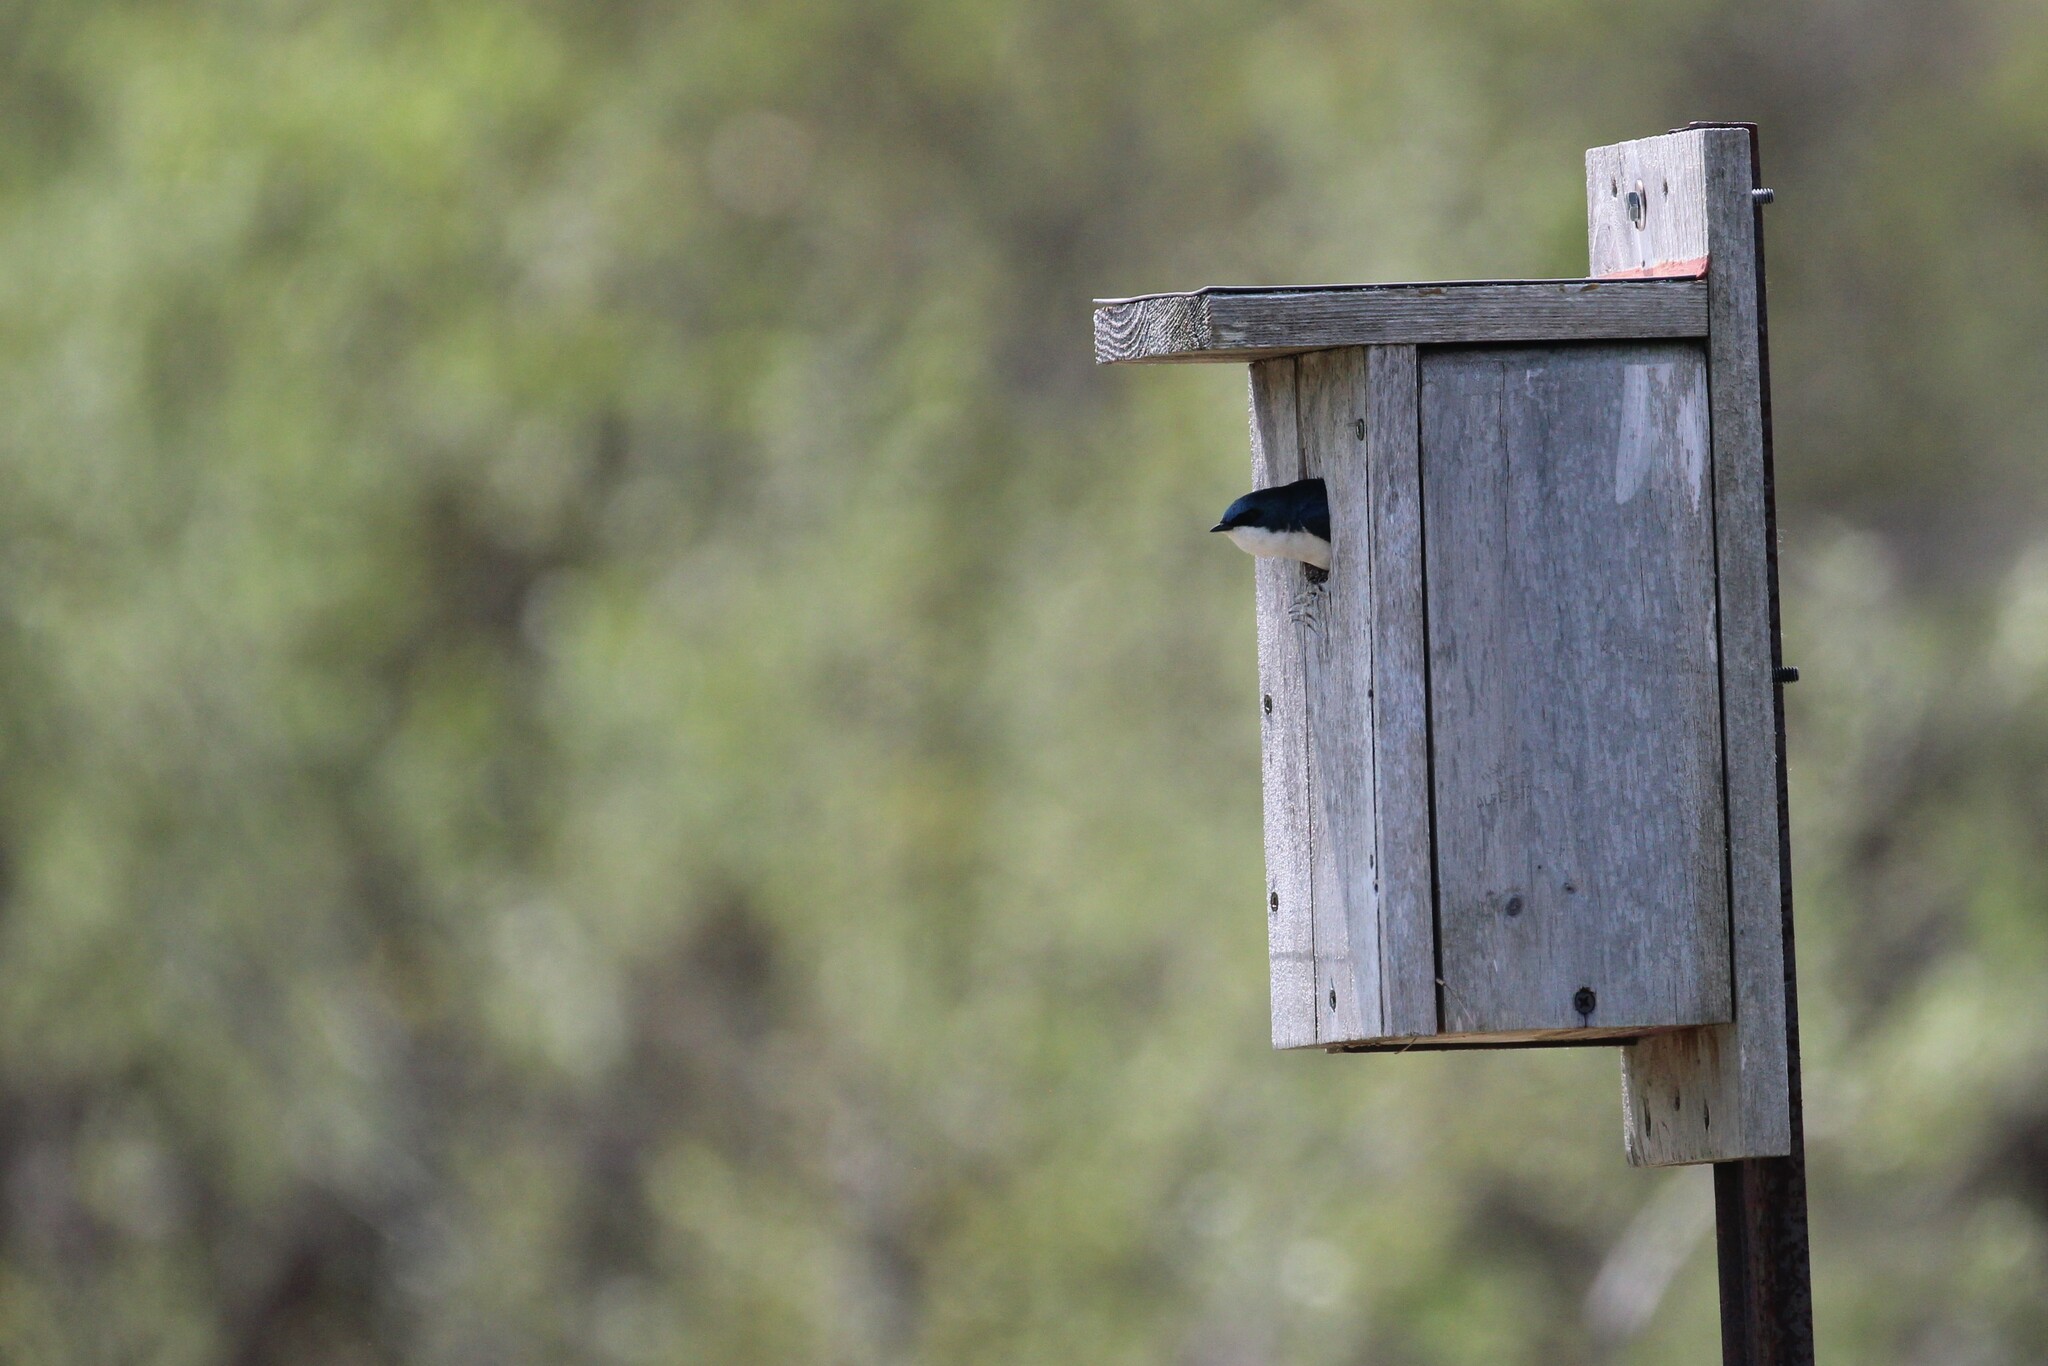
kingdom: Animalia
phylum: Chordata
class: Aves
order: Passeriformes
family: Hirundinidae
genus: Tachycineta
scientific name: Tachycineta bicolor
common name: Tree swallow
